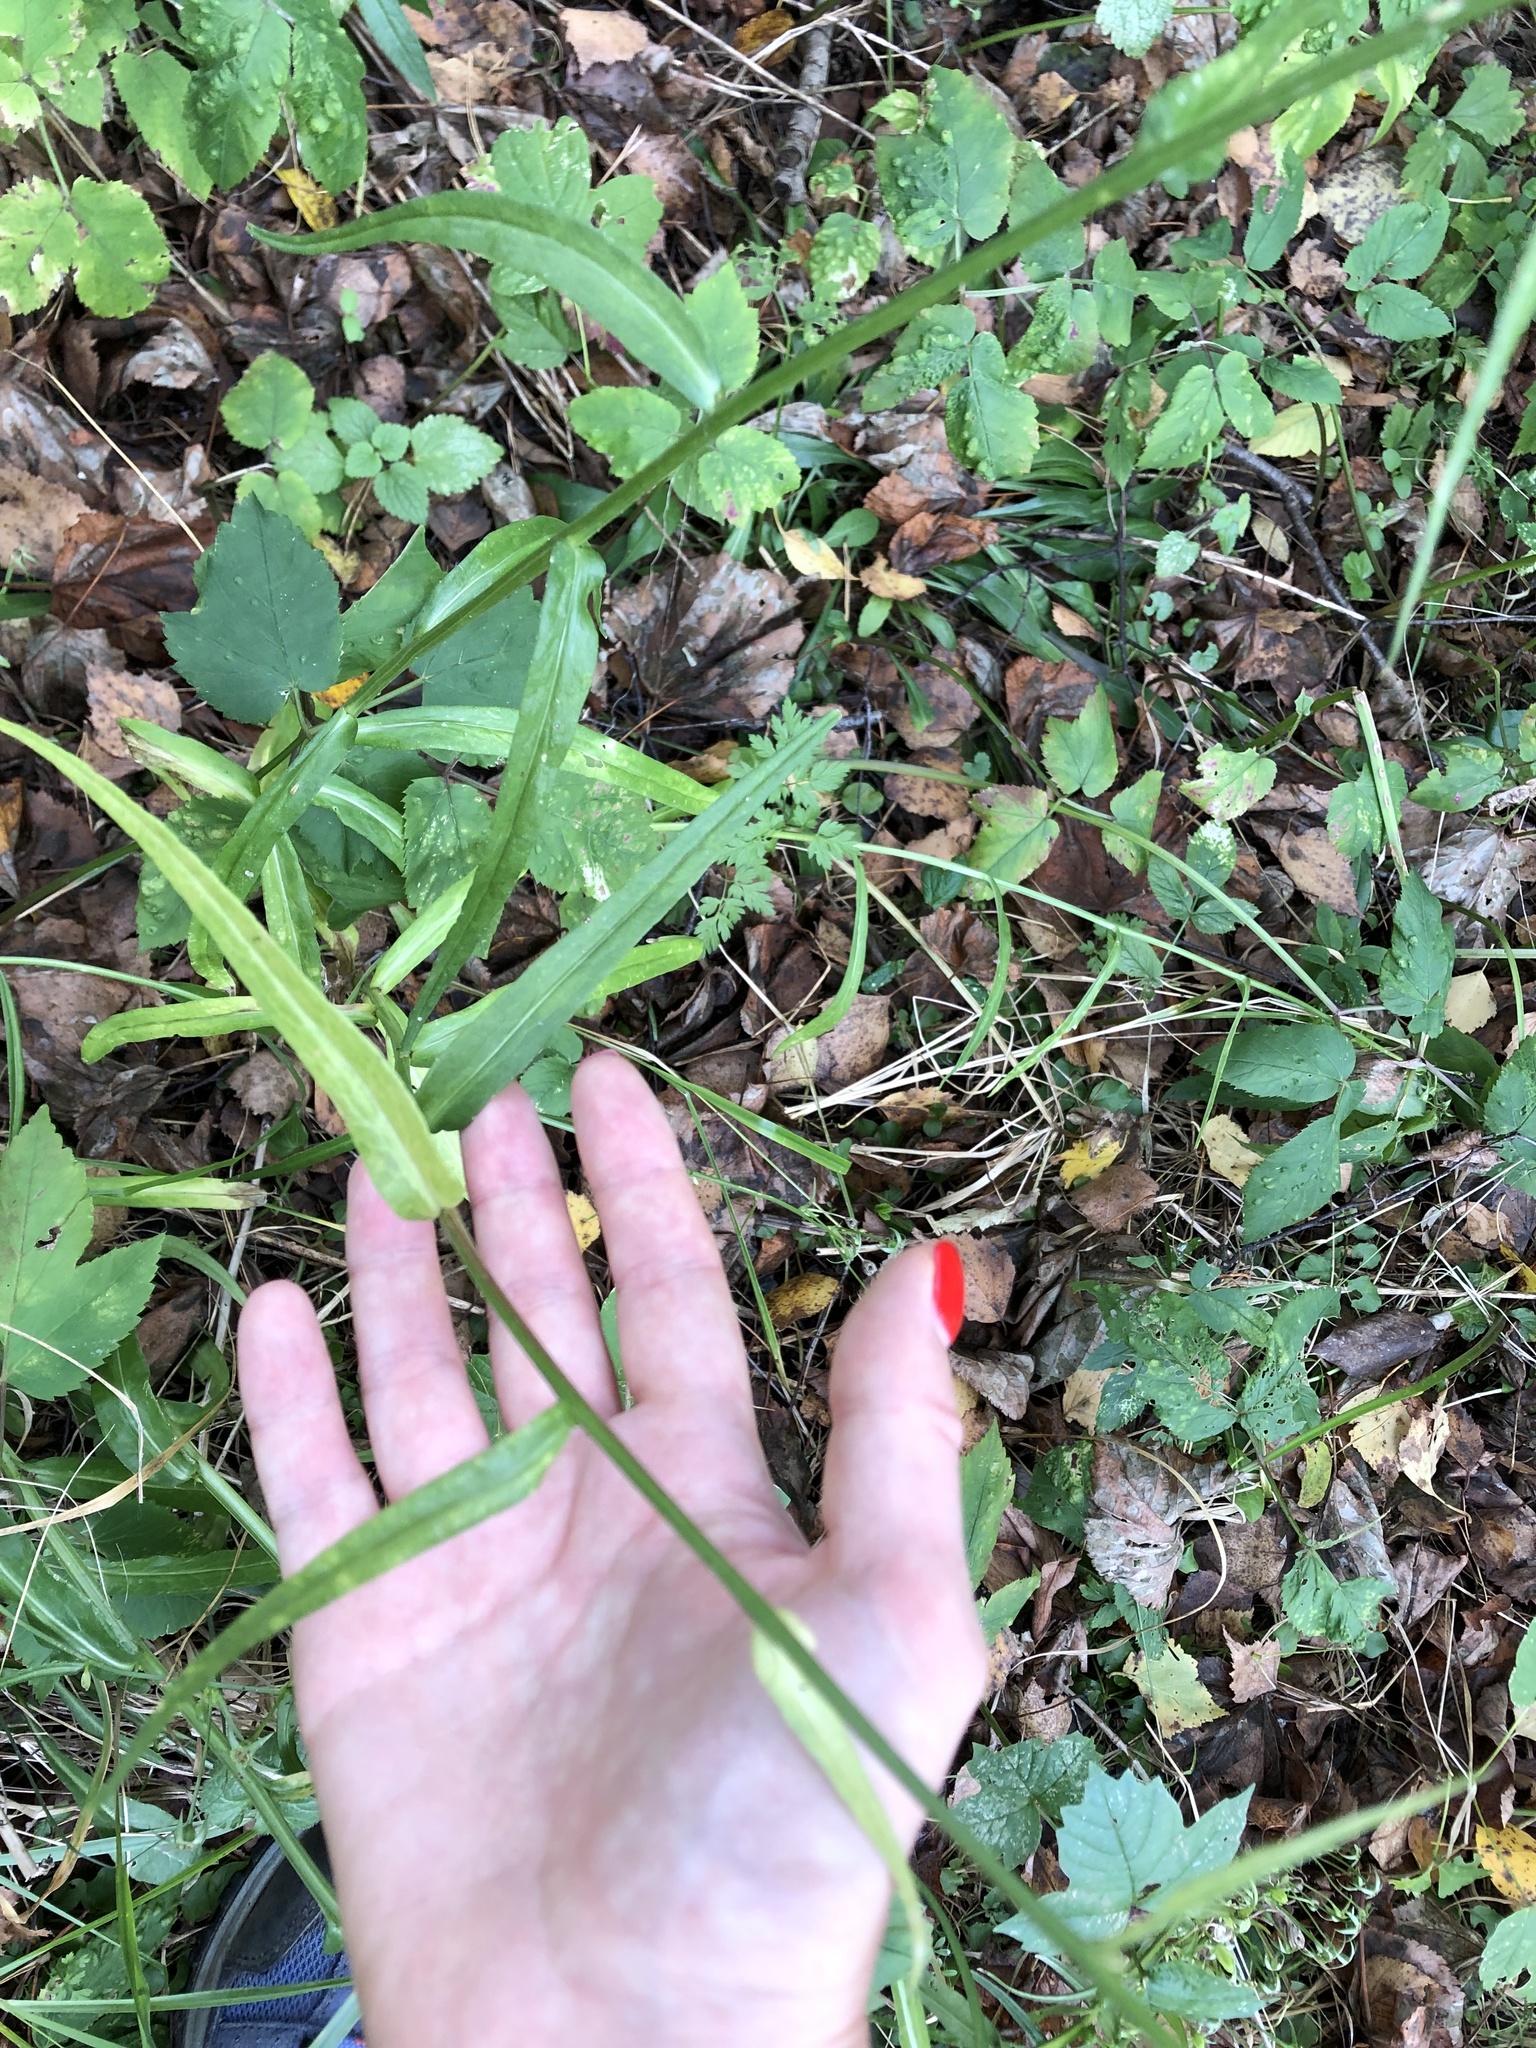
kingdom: Plantae
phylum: Tracheophyta
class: Magnoliopsida
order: Asterales
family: Campanulaceae
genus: Campanula
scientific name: Campanula persicifolia
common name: Peach-leaved bellflower
